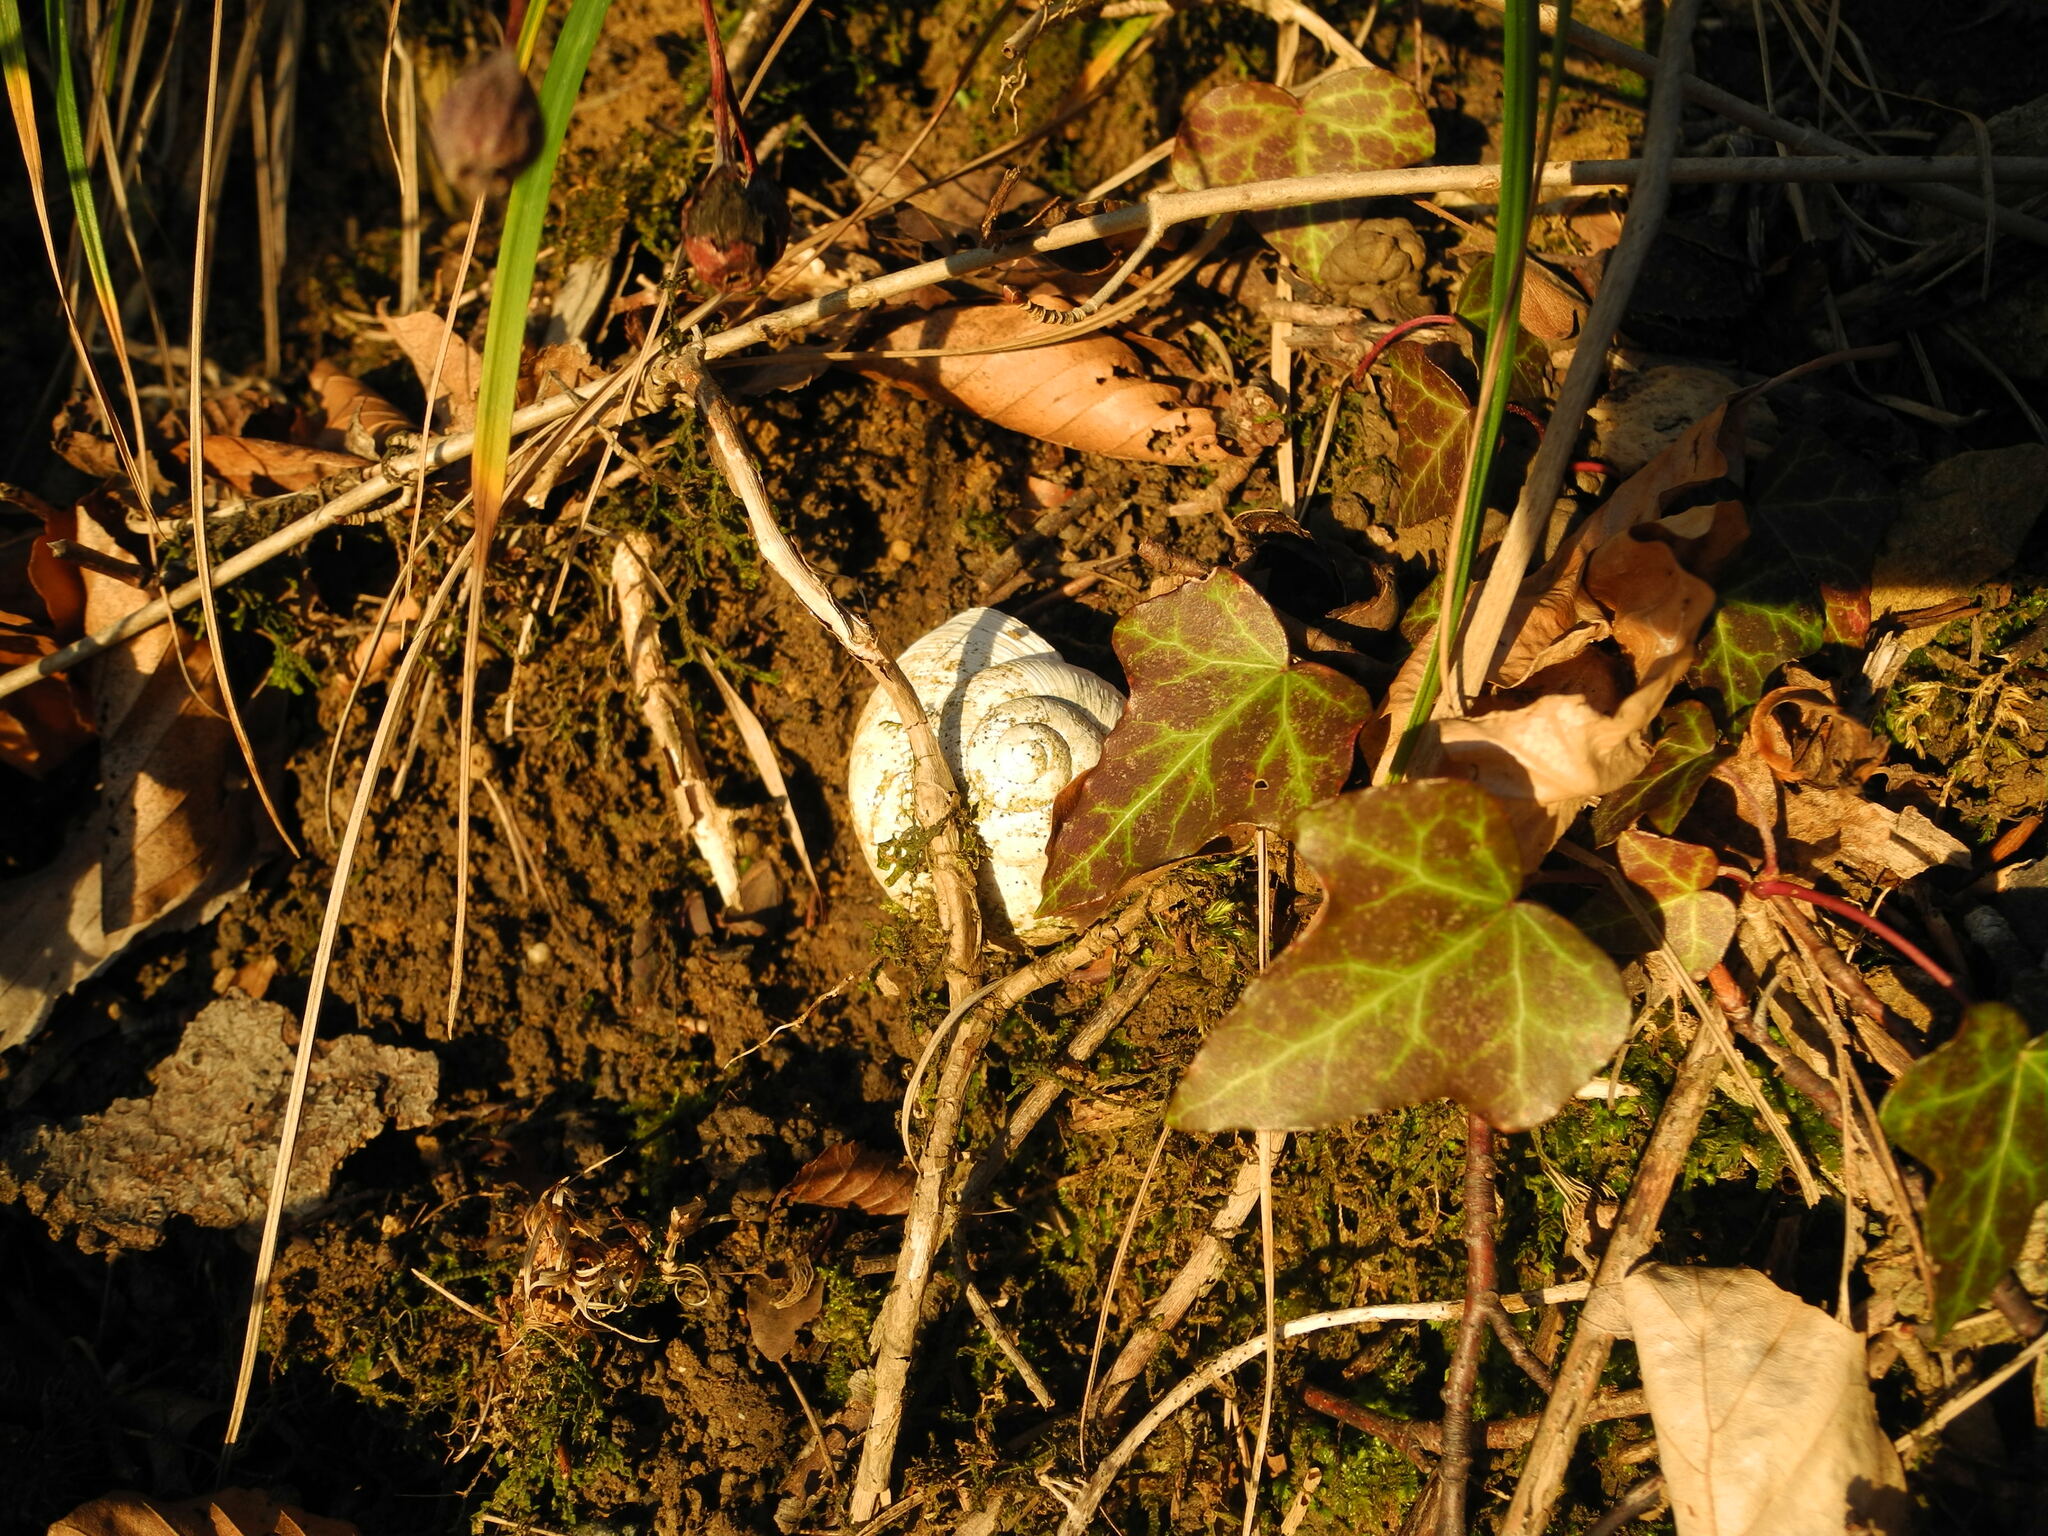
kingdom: Animalia
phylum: Mollusca
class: Gastropoda
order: Stylommatophora
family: Helicidae
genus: Helix
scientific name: Helix pomatia
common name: Roman snail
